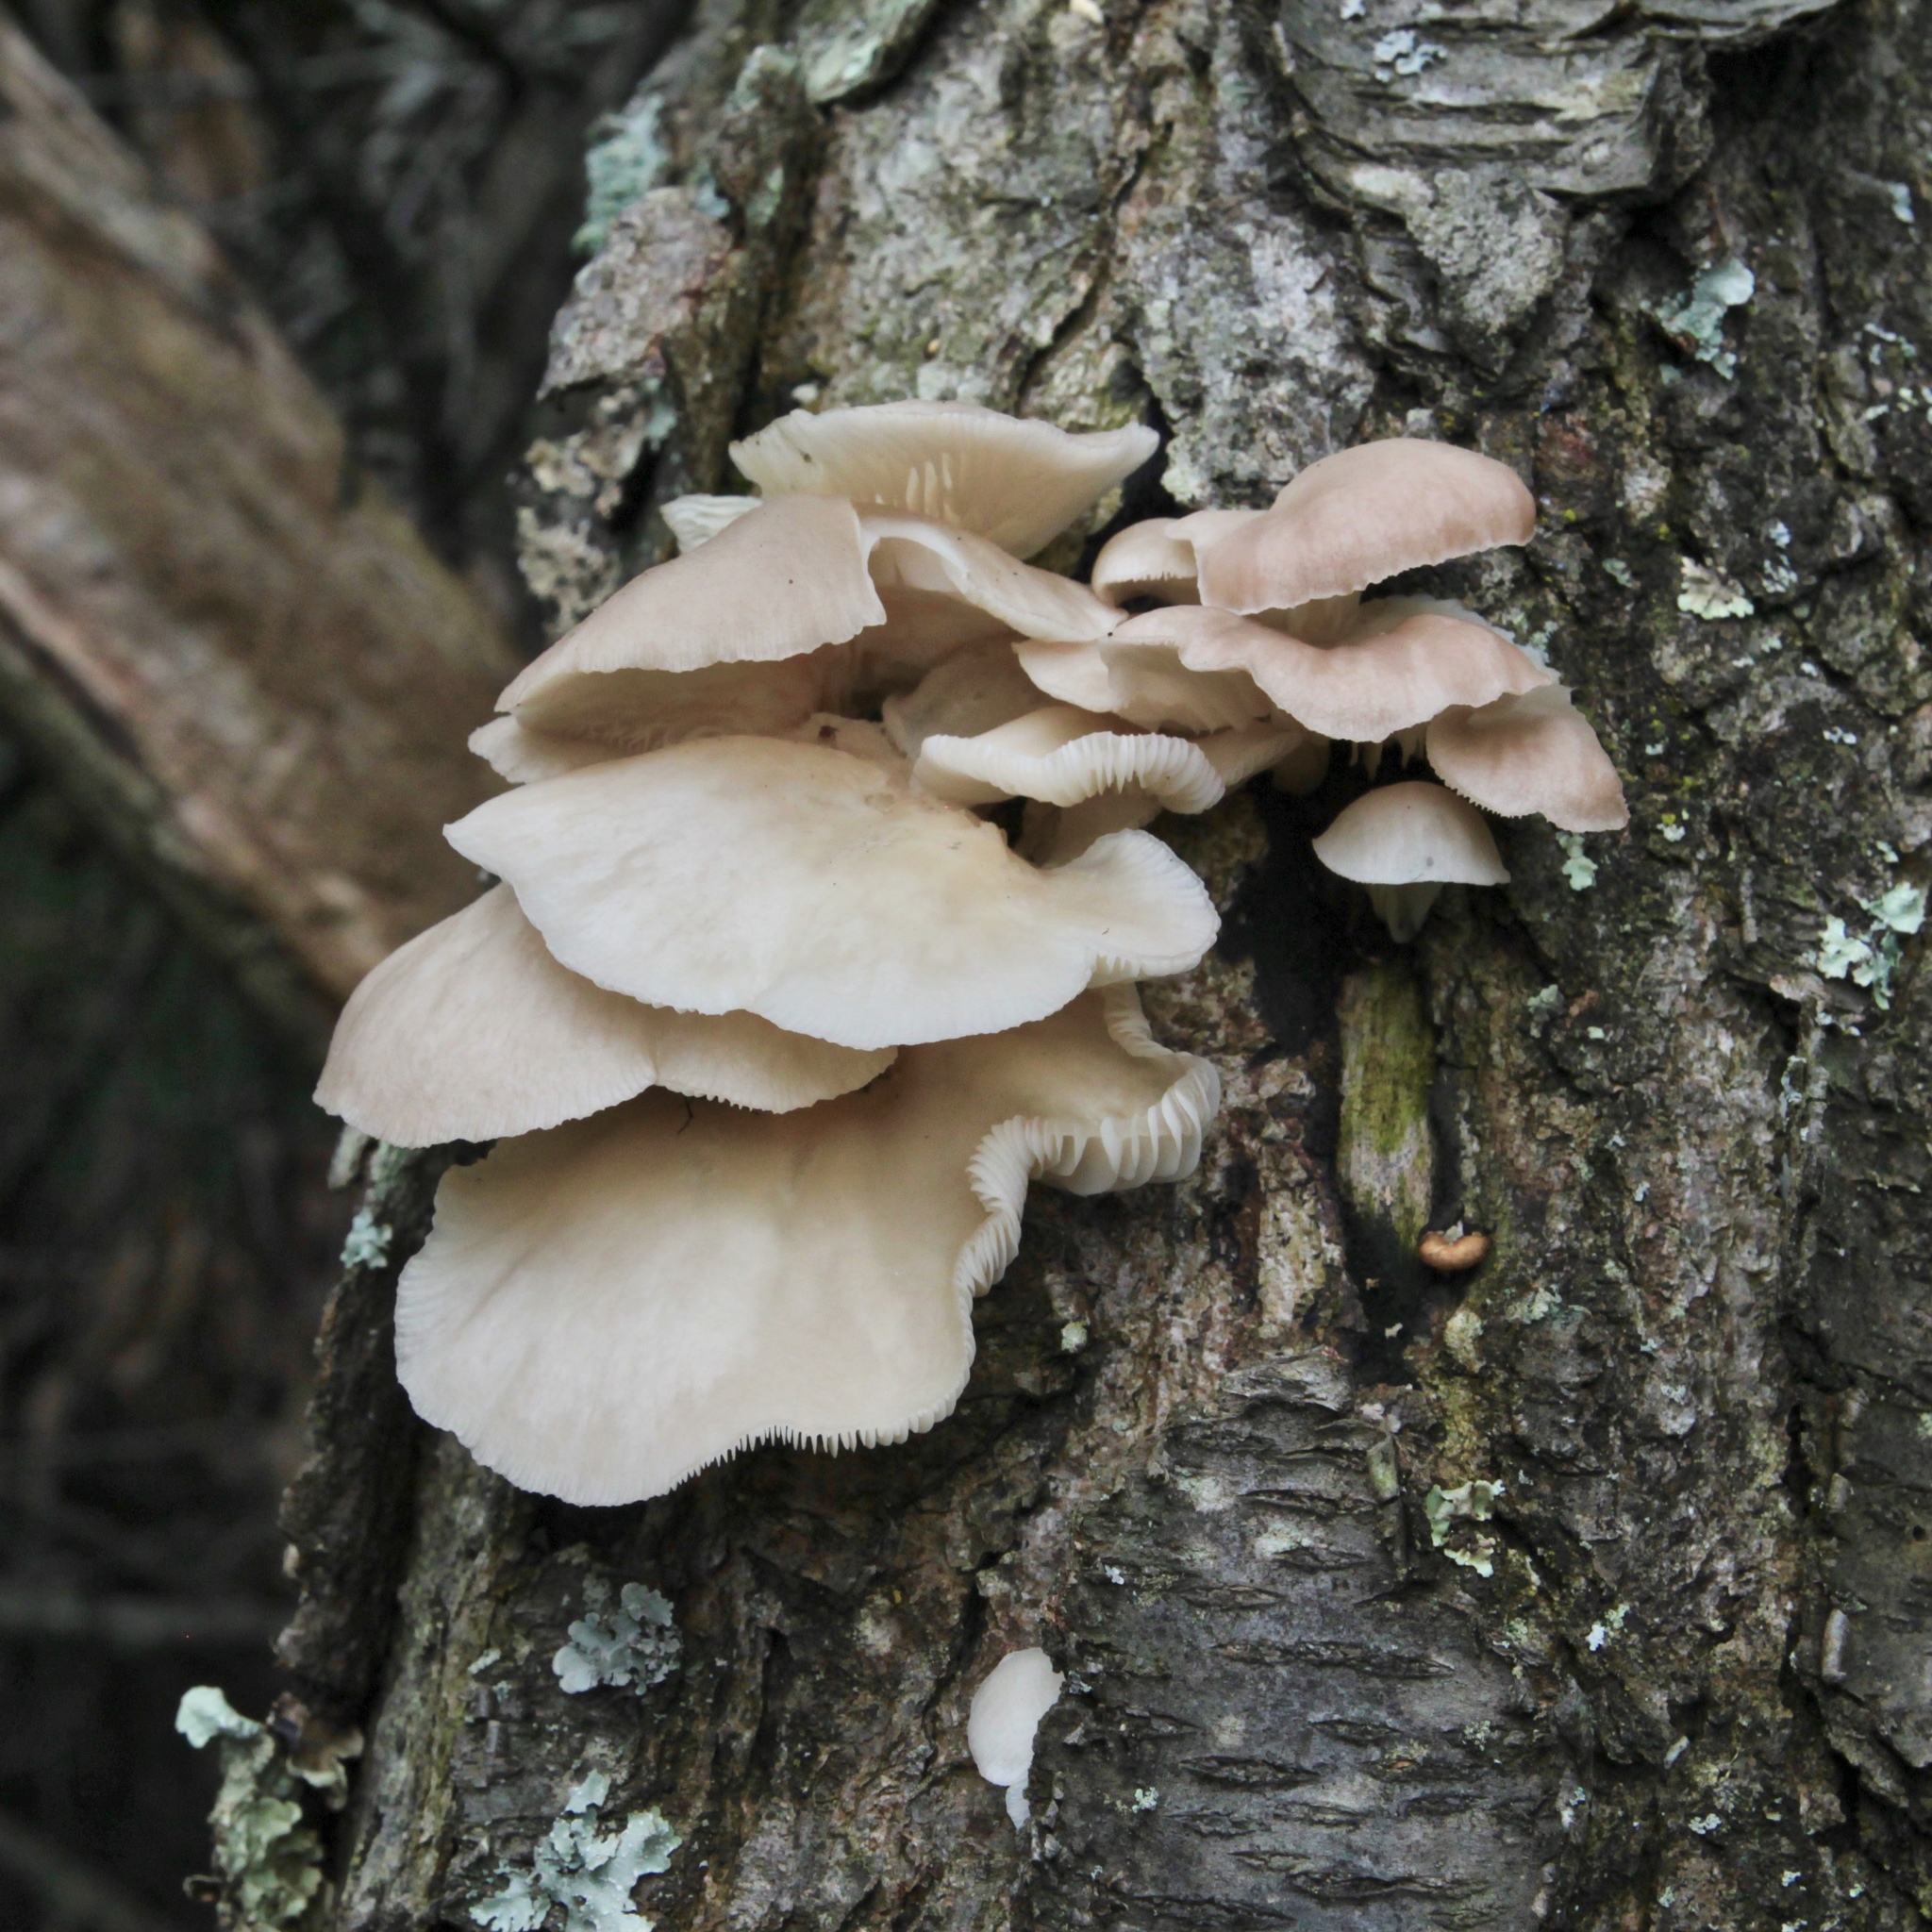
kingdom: Fungi
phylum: Basidiomycota
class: Agaricomycetes
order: Agaricales
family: Pleurotaceae
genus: Pleurotus
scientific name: Pleurotus pulmonarius
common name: Pale oyster
